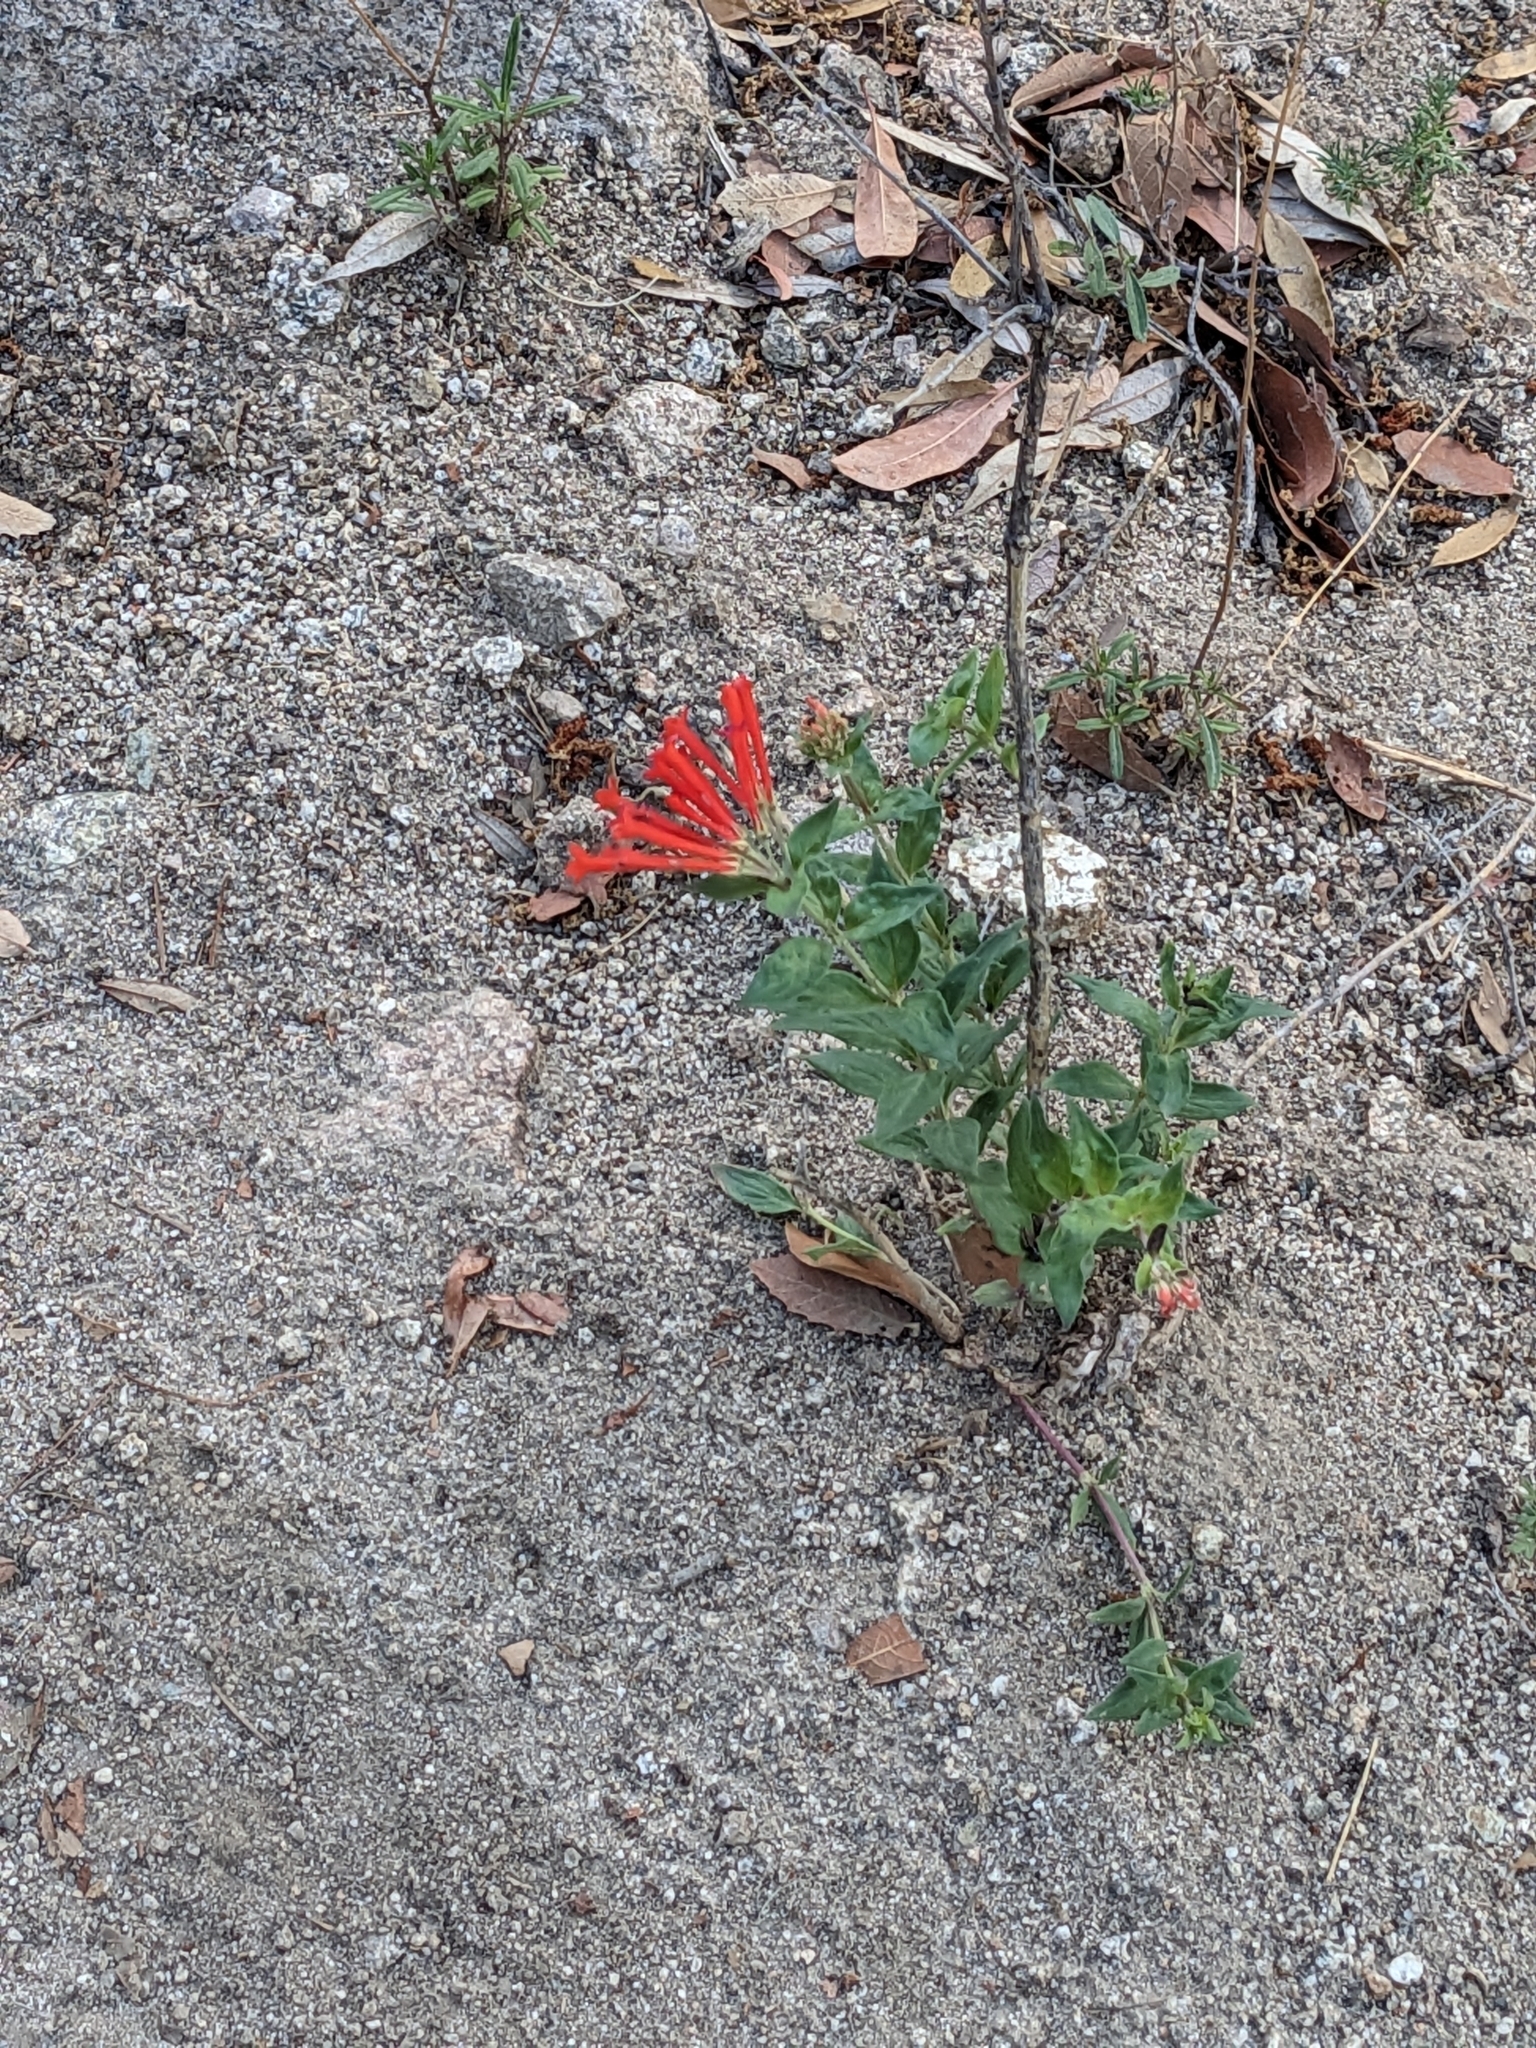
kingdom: Plantae
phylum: Tracheophyta
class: Magnoliopsida
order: Gentianales
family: Rubiaceae
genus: Bouvardia
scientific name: Bouvardia ternifolia
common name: Scarlet bouvardia
